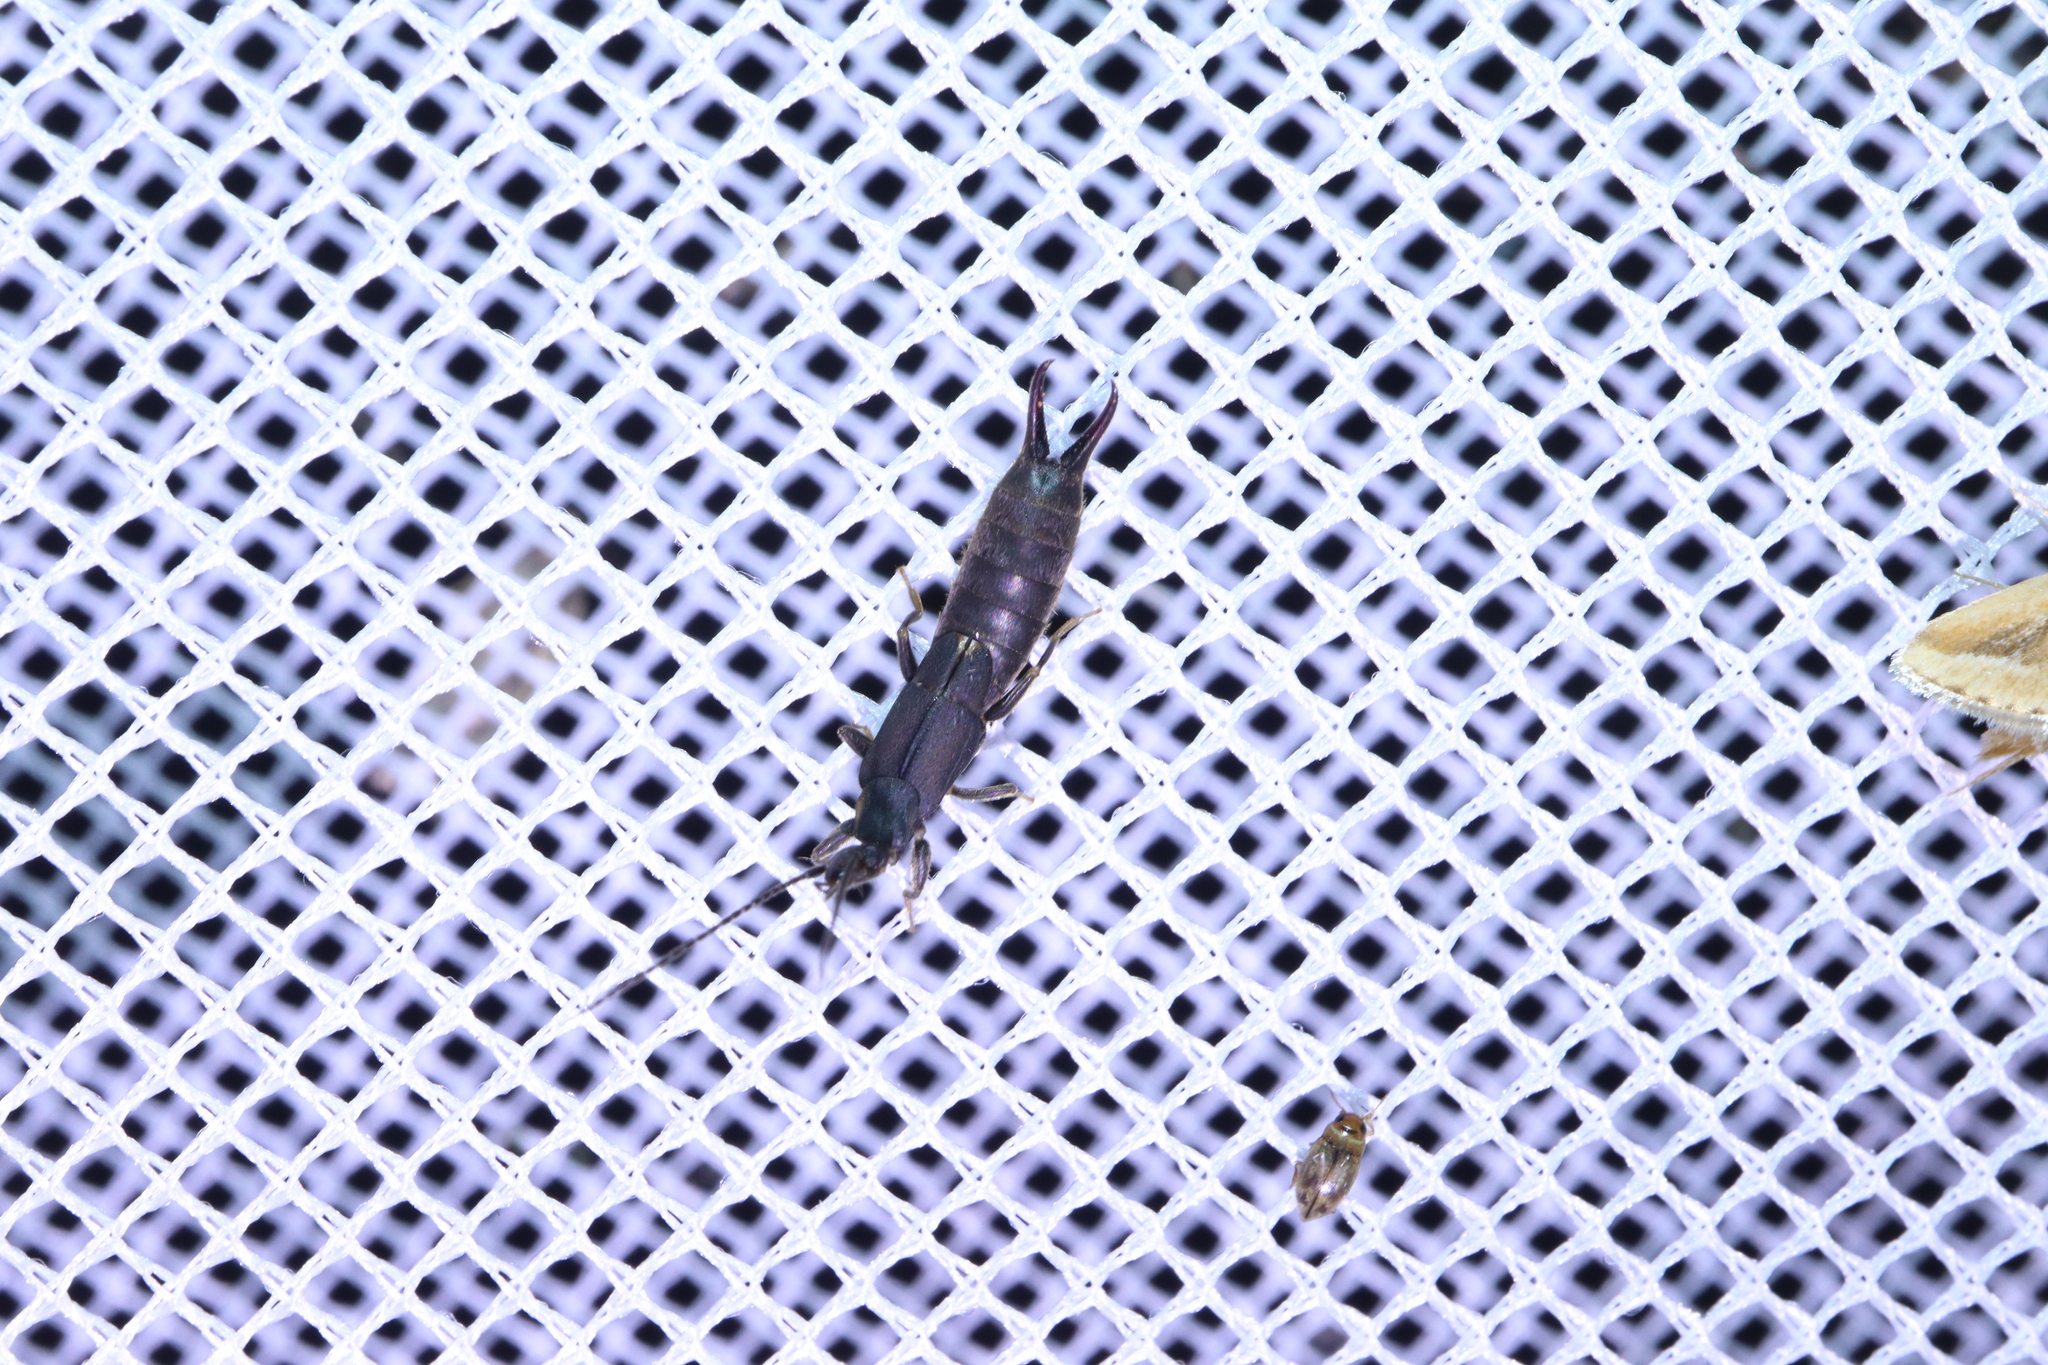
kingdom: Animalia
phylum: Arthropoda
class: Insecta
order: Dermaptera
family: Labiduridae
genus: Nala
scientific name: Nala lividipes
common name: Earwig
